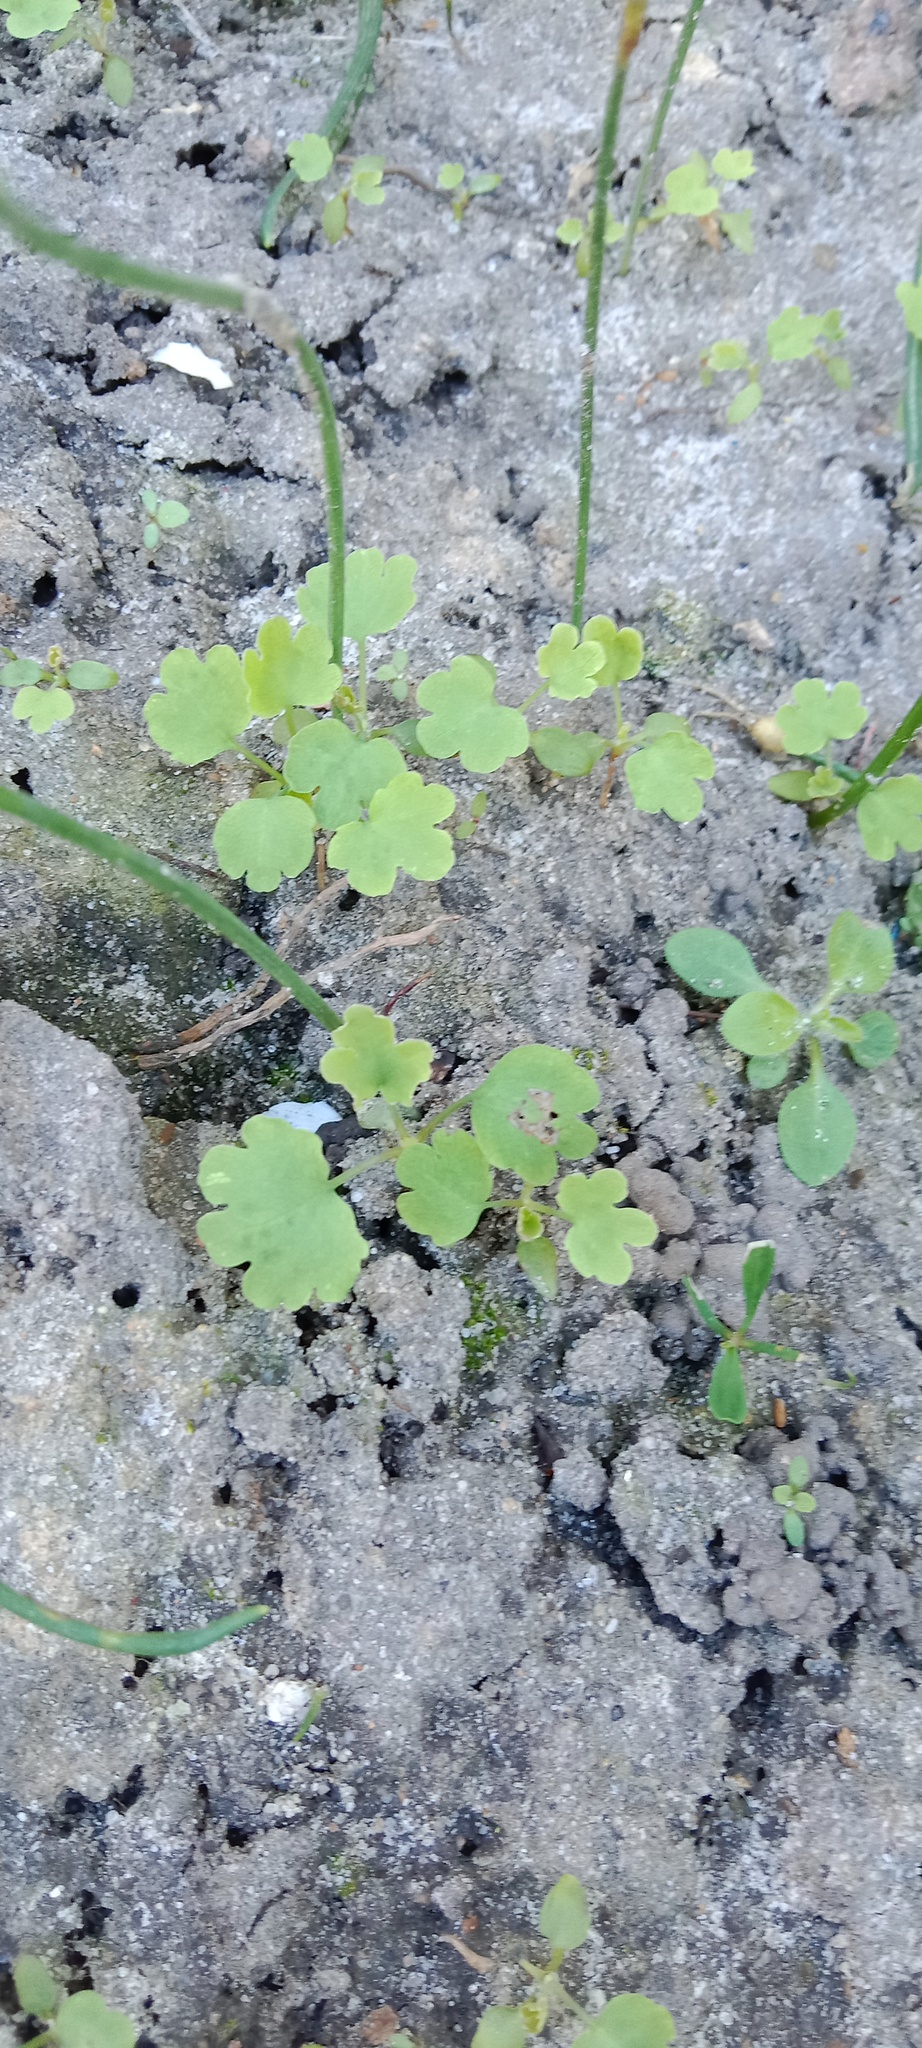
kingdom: Plantae
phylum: Tracheophyta
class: Magnoliopsida
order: Ranunculales
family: Papaveraceae
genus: Chelidonium
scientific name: Chelidonium majus
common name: Greater celandine
